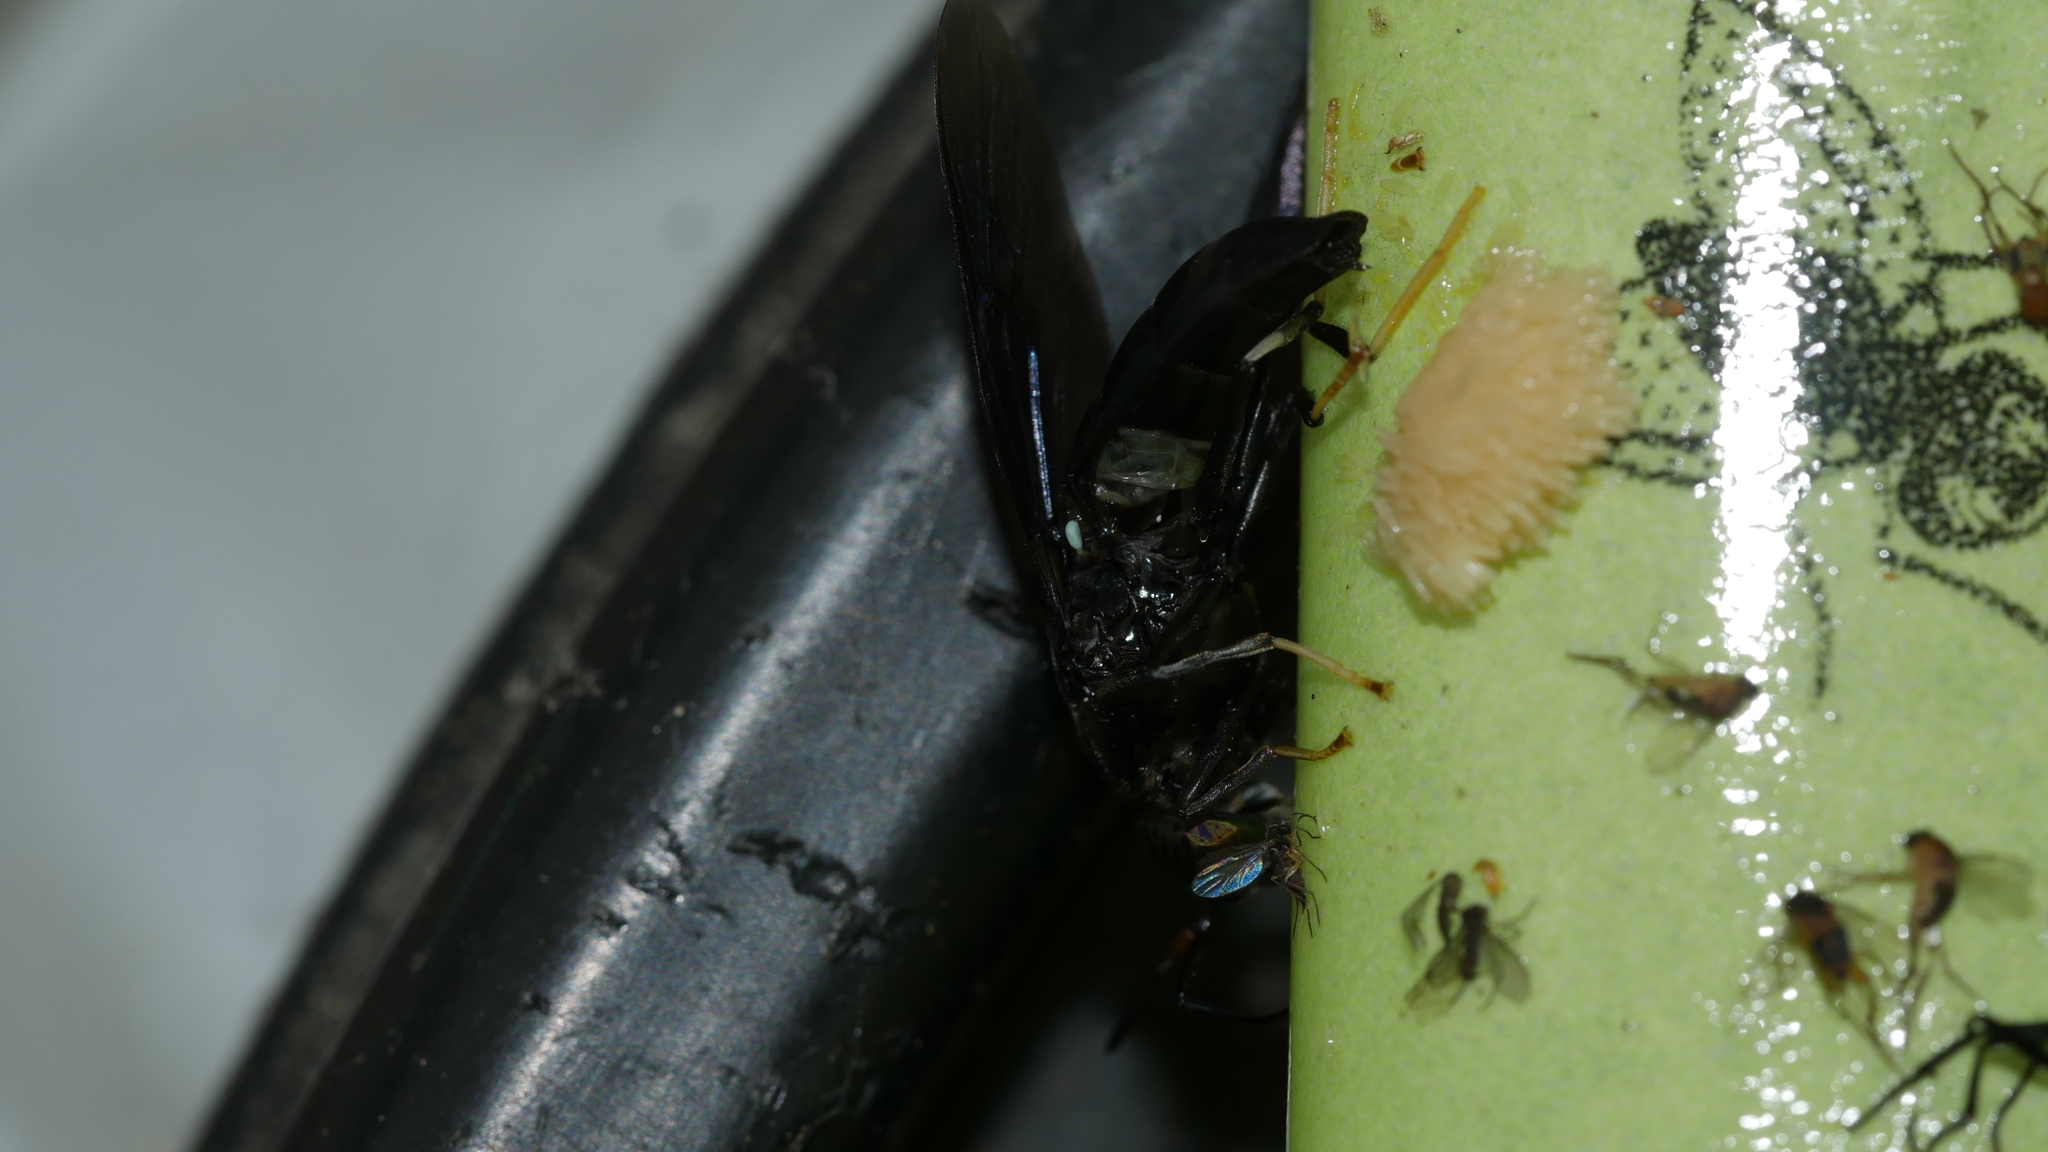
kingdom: Animalia
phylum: Arthropoda
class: Insecta
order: Diptera
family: Stratiomyidae
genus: Hermetia
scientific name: Hermetia illucens
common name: Black soldier fly
